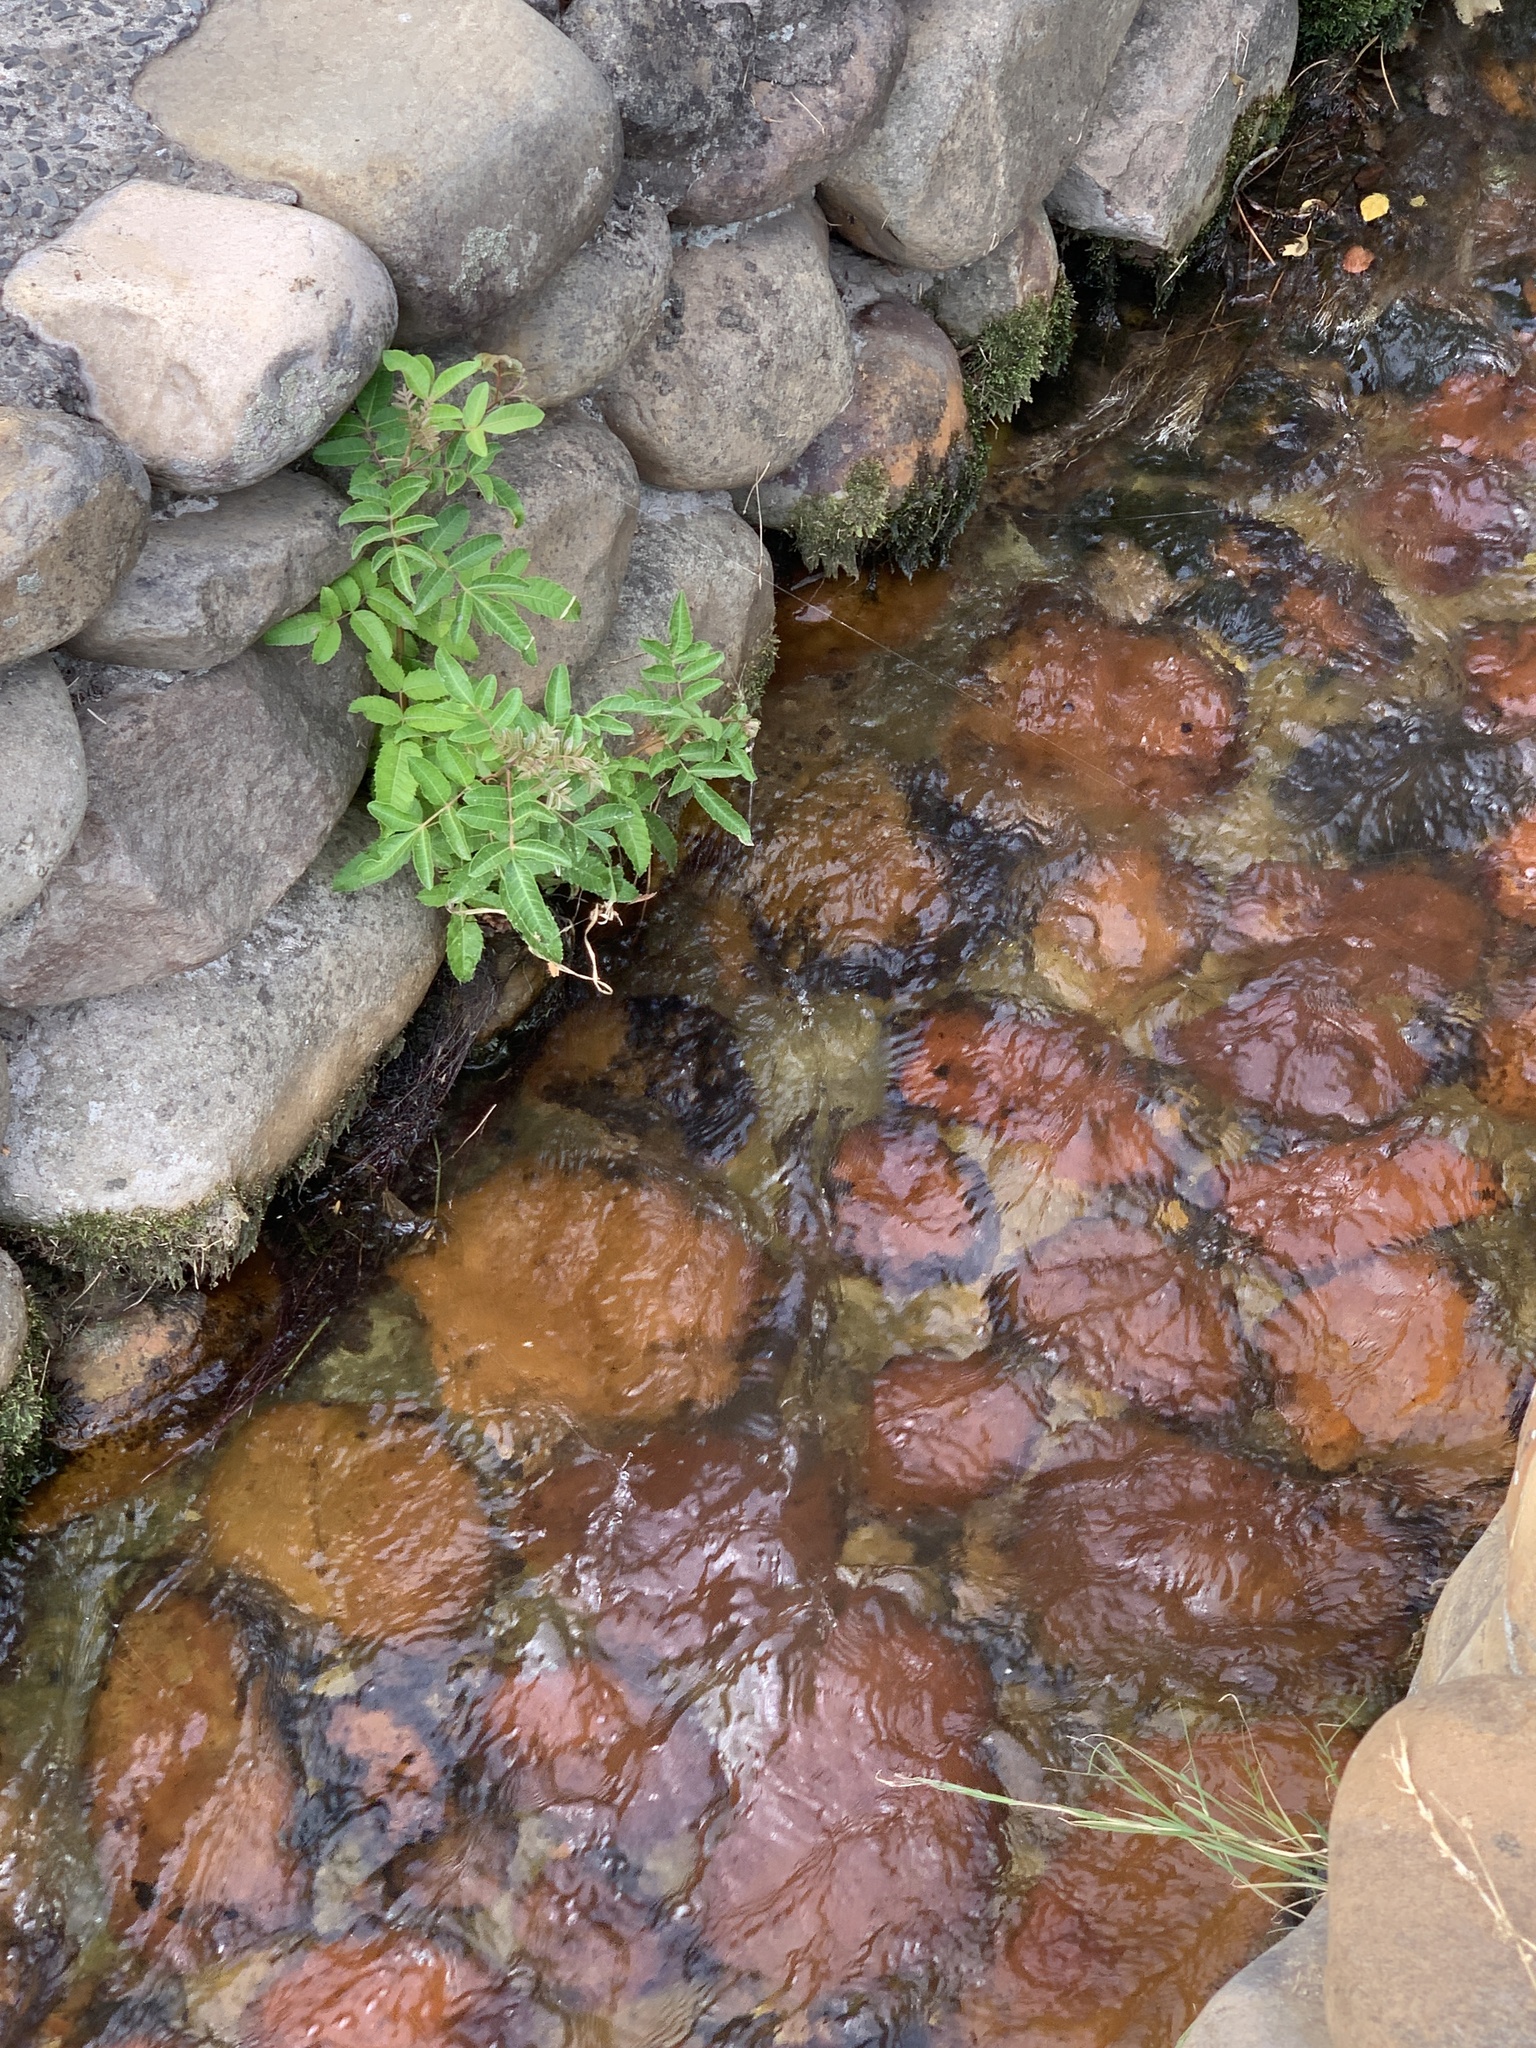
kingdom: Plantae
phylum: Tracheophyta
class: Magnoliopsida
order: Sapindales
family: Anacardiaceae
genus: Schinus
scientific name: Schinus terebinthifolia
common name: Brazilian peppertree
